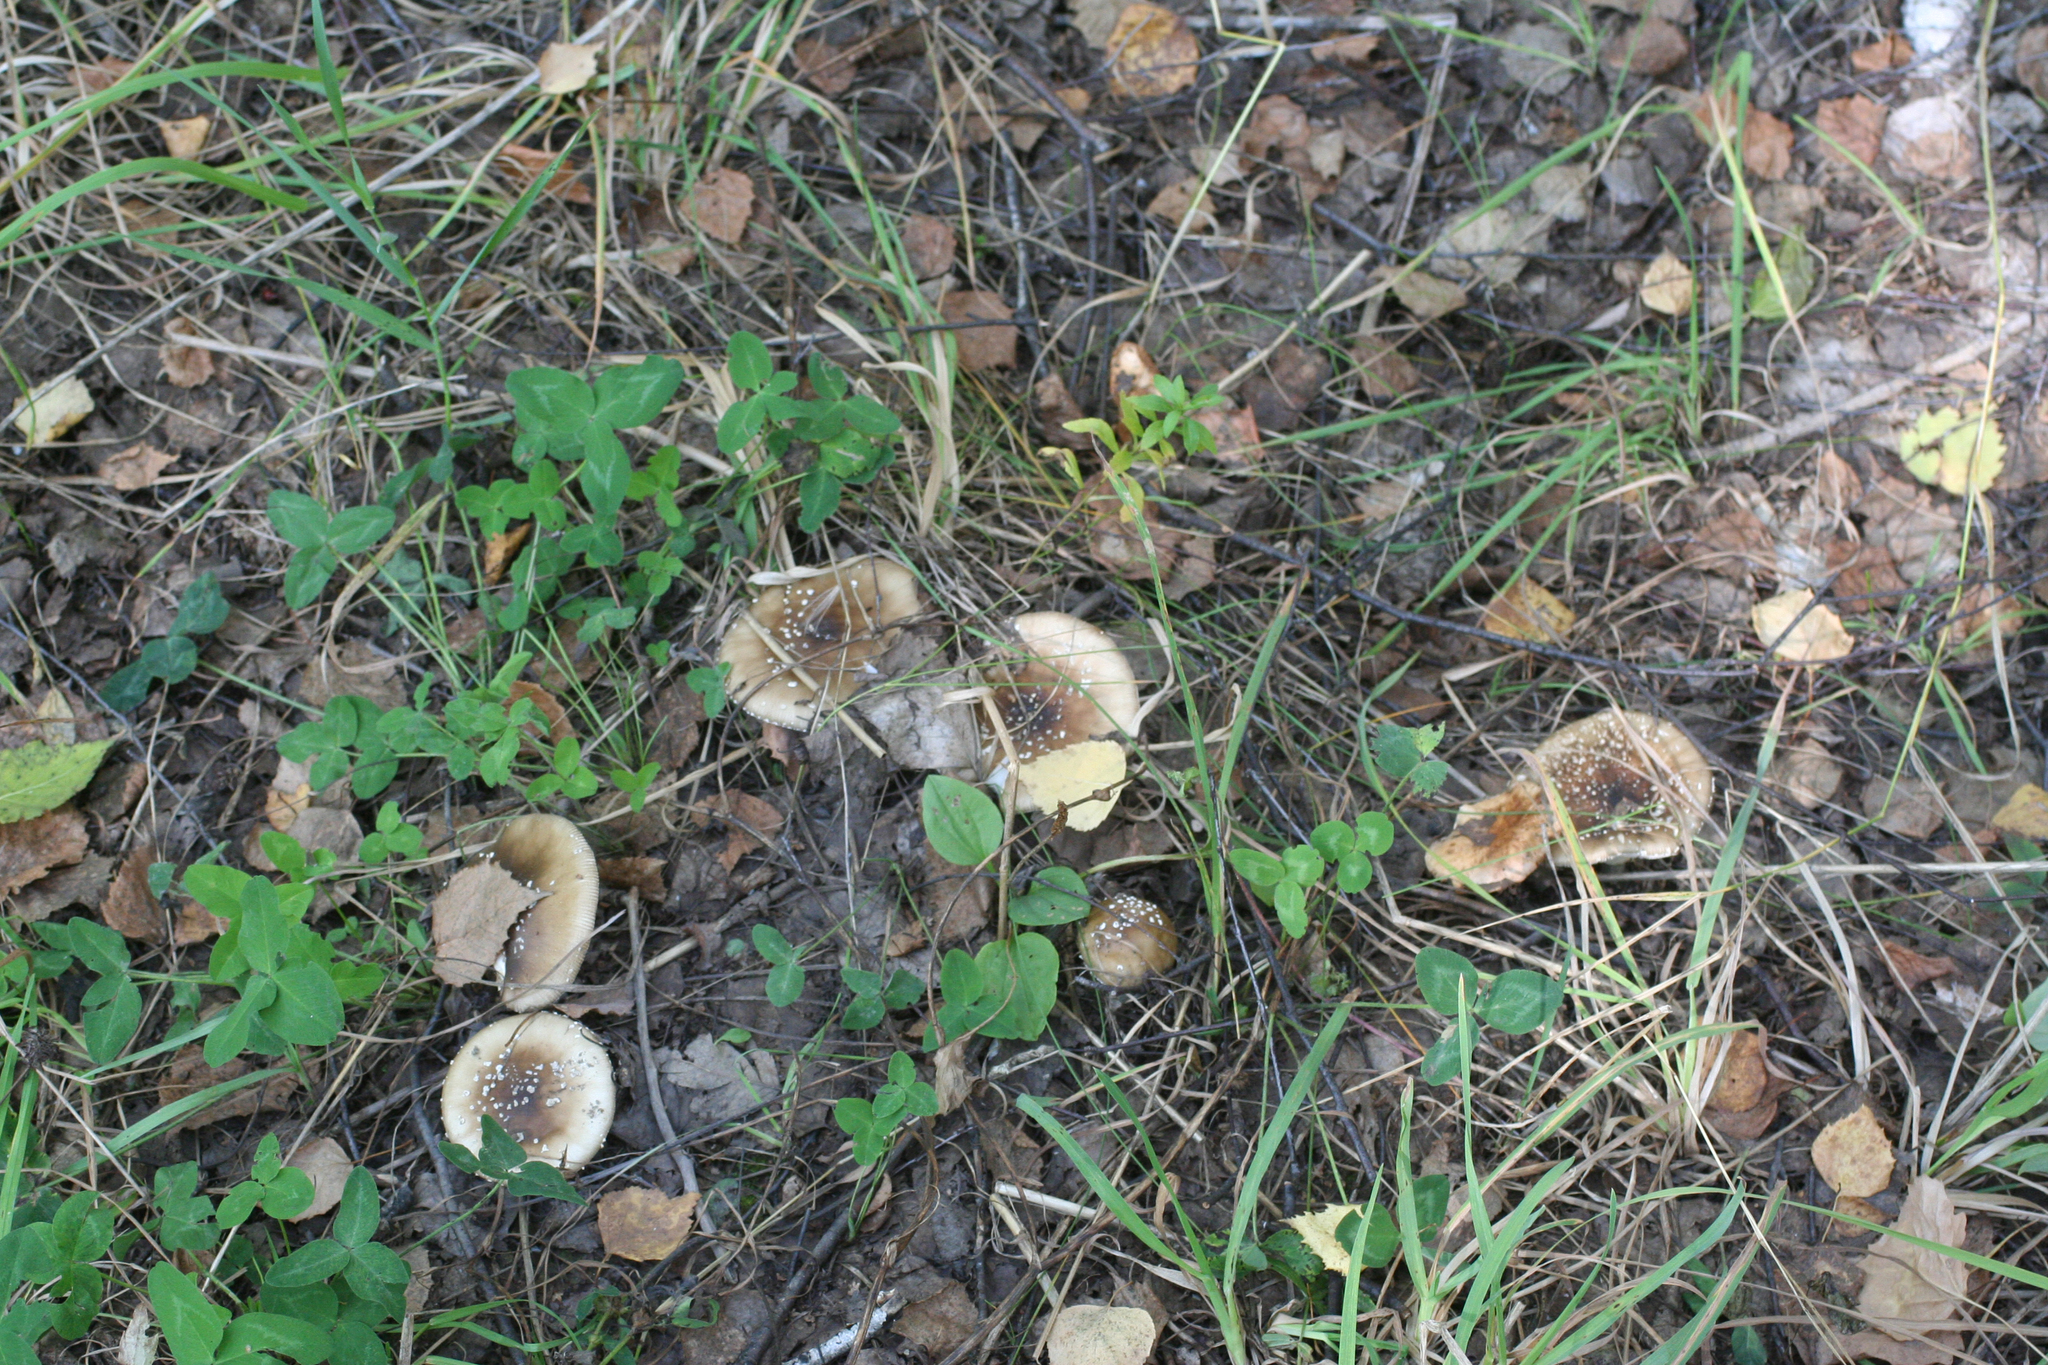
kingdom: Fungi
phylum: Basidiomycota
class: Agaricomycetes
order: Agaricales
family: Amanitaceae
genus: Amanita
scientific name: Amanita pantherina
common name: Panthercap
